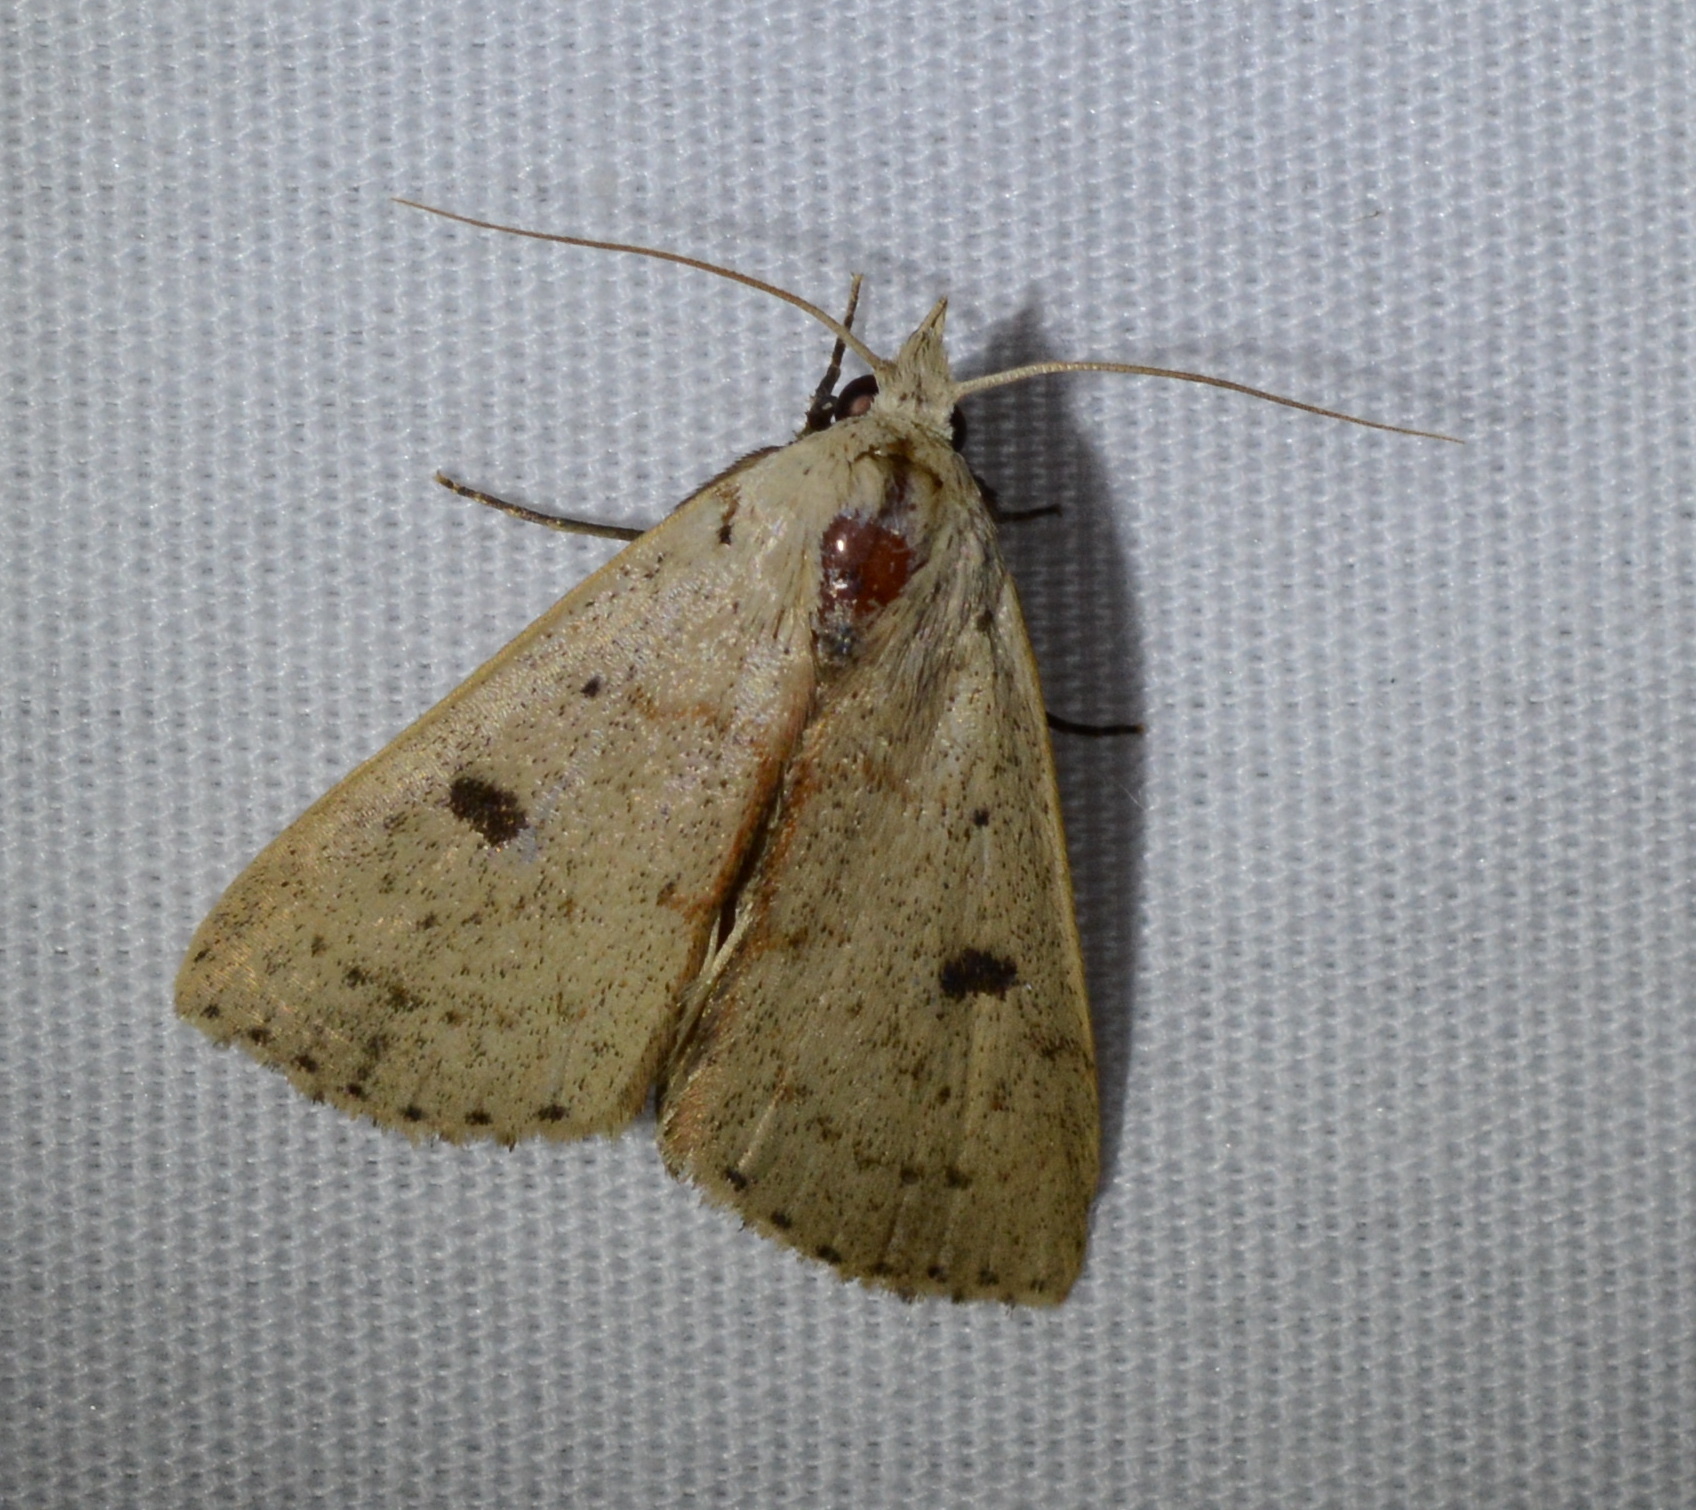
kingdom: Animalia
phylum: Arthropoda
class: Insecta
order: Lepidoptera
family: Erebidae
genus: Scolecocampa
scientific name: Scolecocampa liburna
